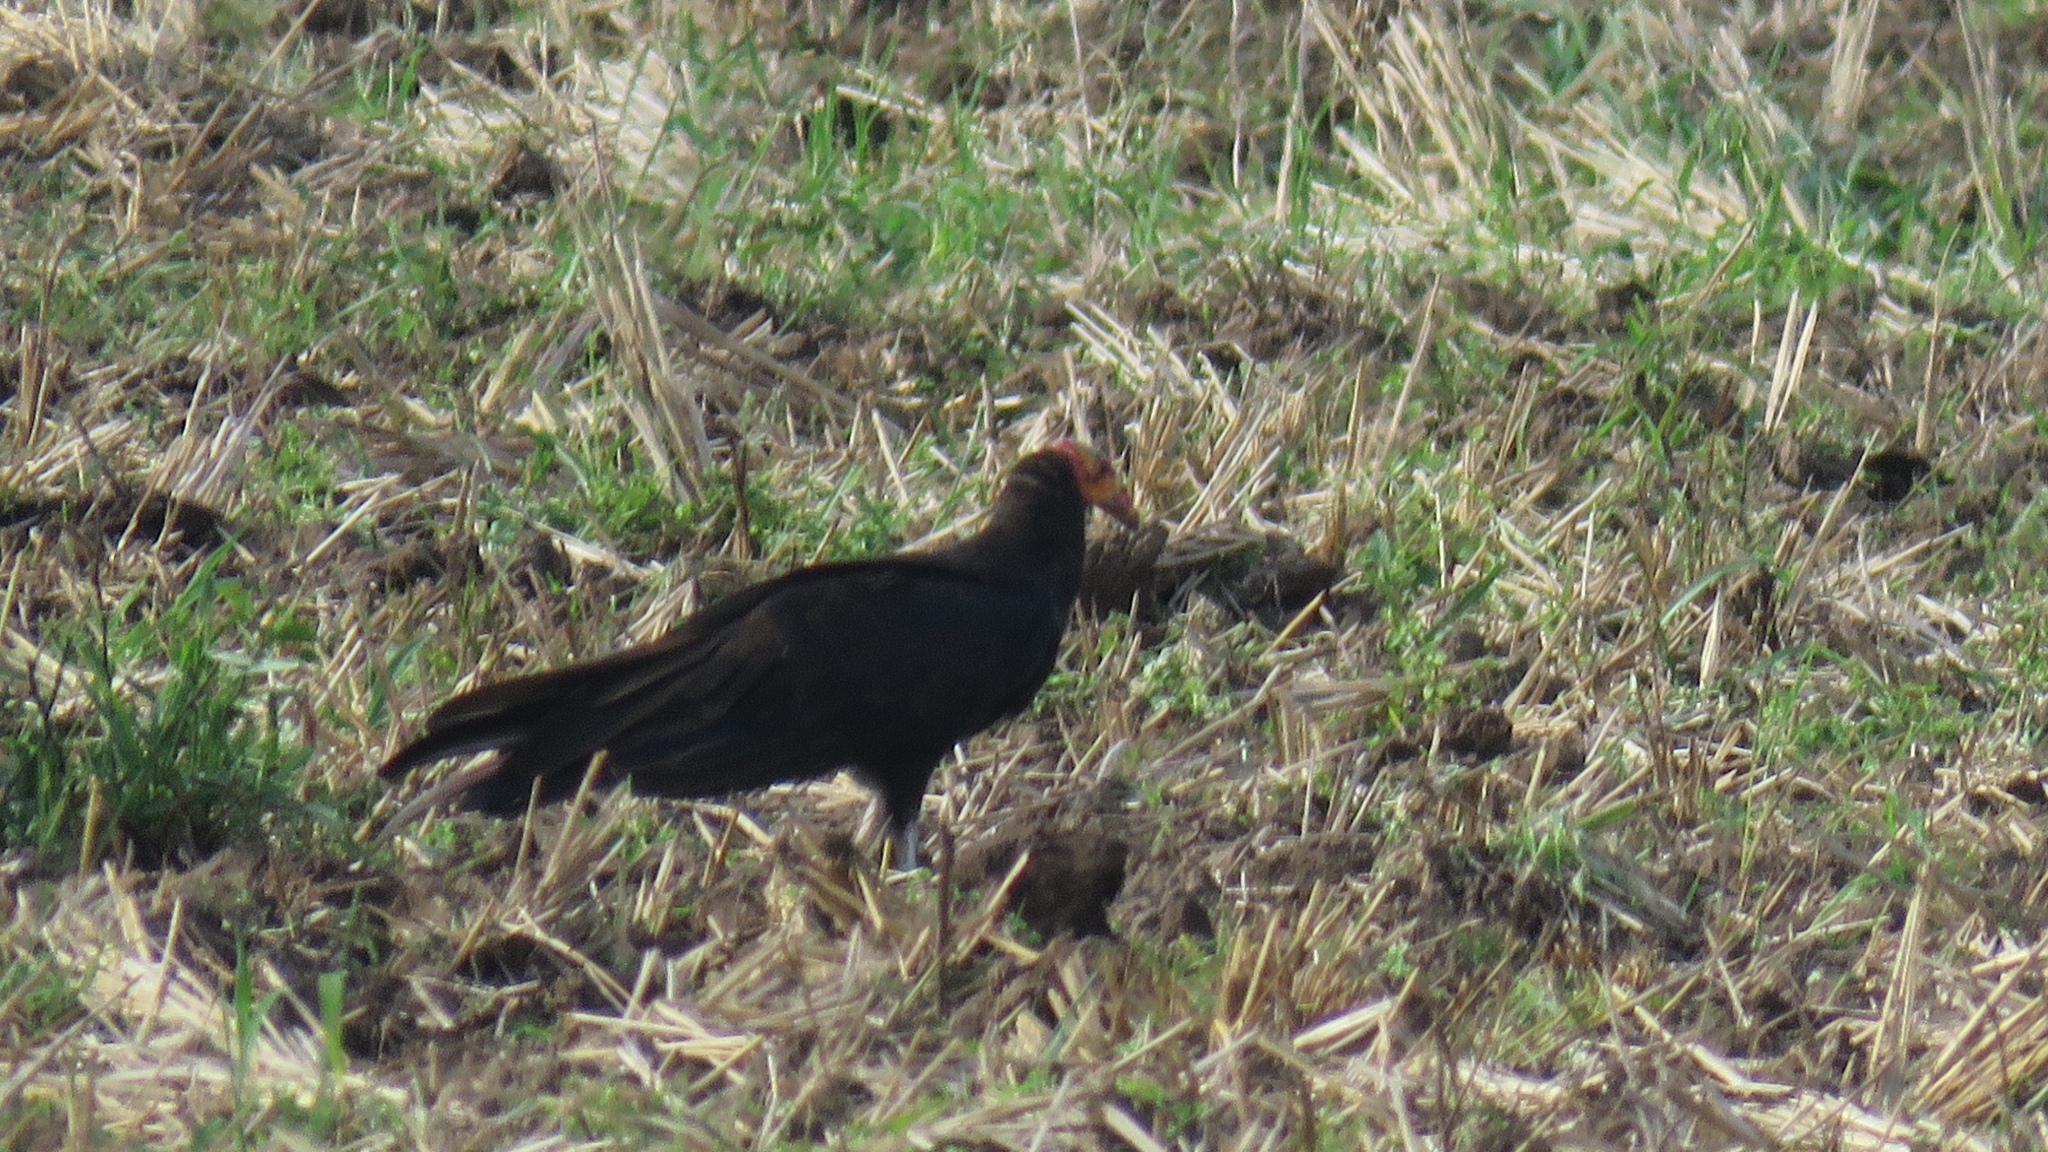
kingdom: Animalia
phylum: Chordata
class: Aves
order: Accipitriformes
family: Cathartidae
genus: Cathartes
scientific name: Cathartes burrovianus
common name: Lesser yellow-headed vulture
